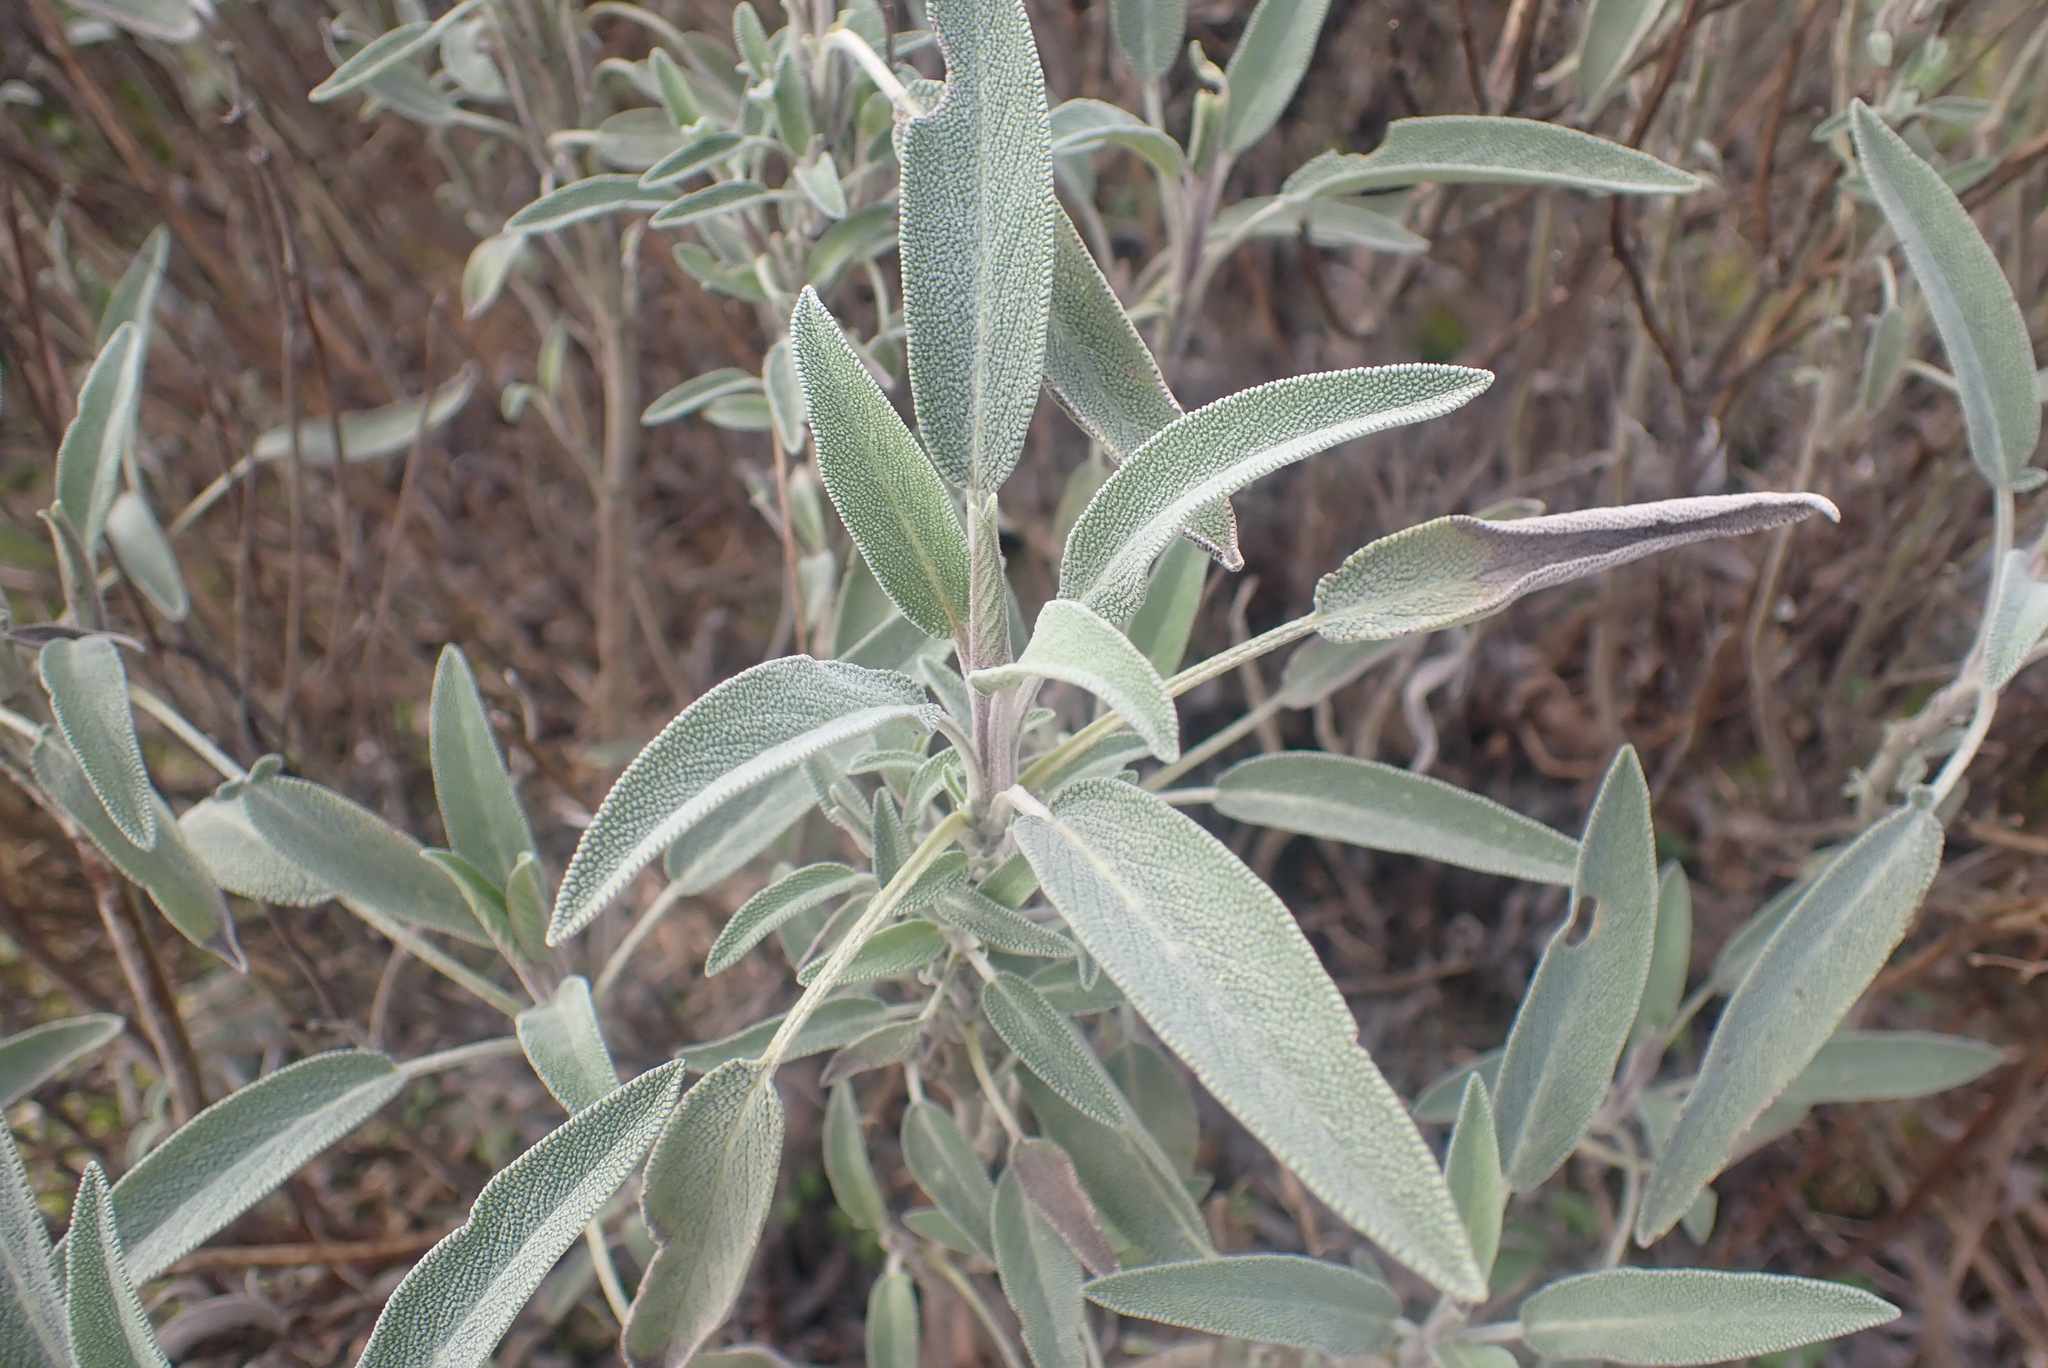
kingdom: Plantae
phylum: Tracheophyta
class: Magnoliopsida
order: Lamiales
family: Lamiaceae
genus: Salvia
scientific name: Salvia officinalis
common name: Sage
